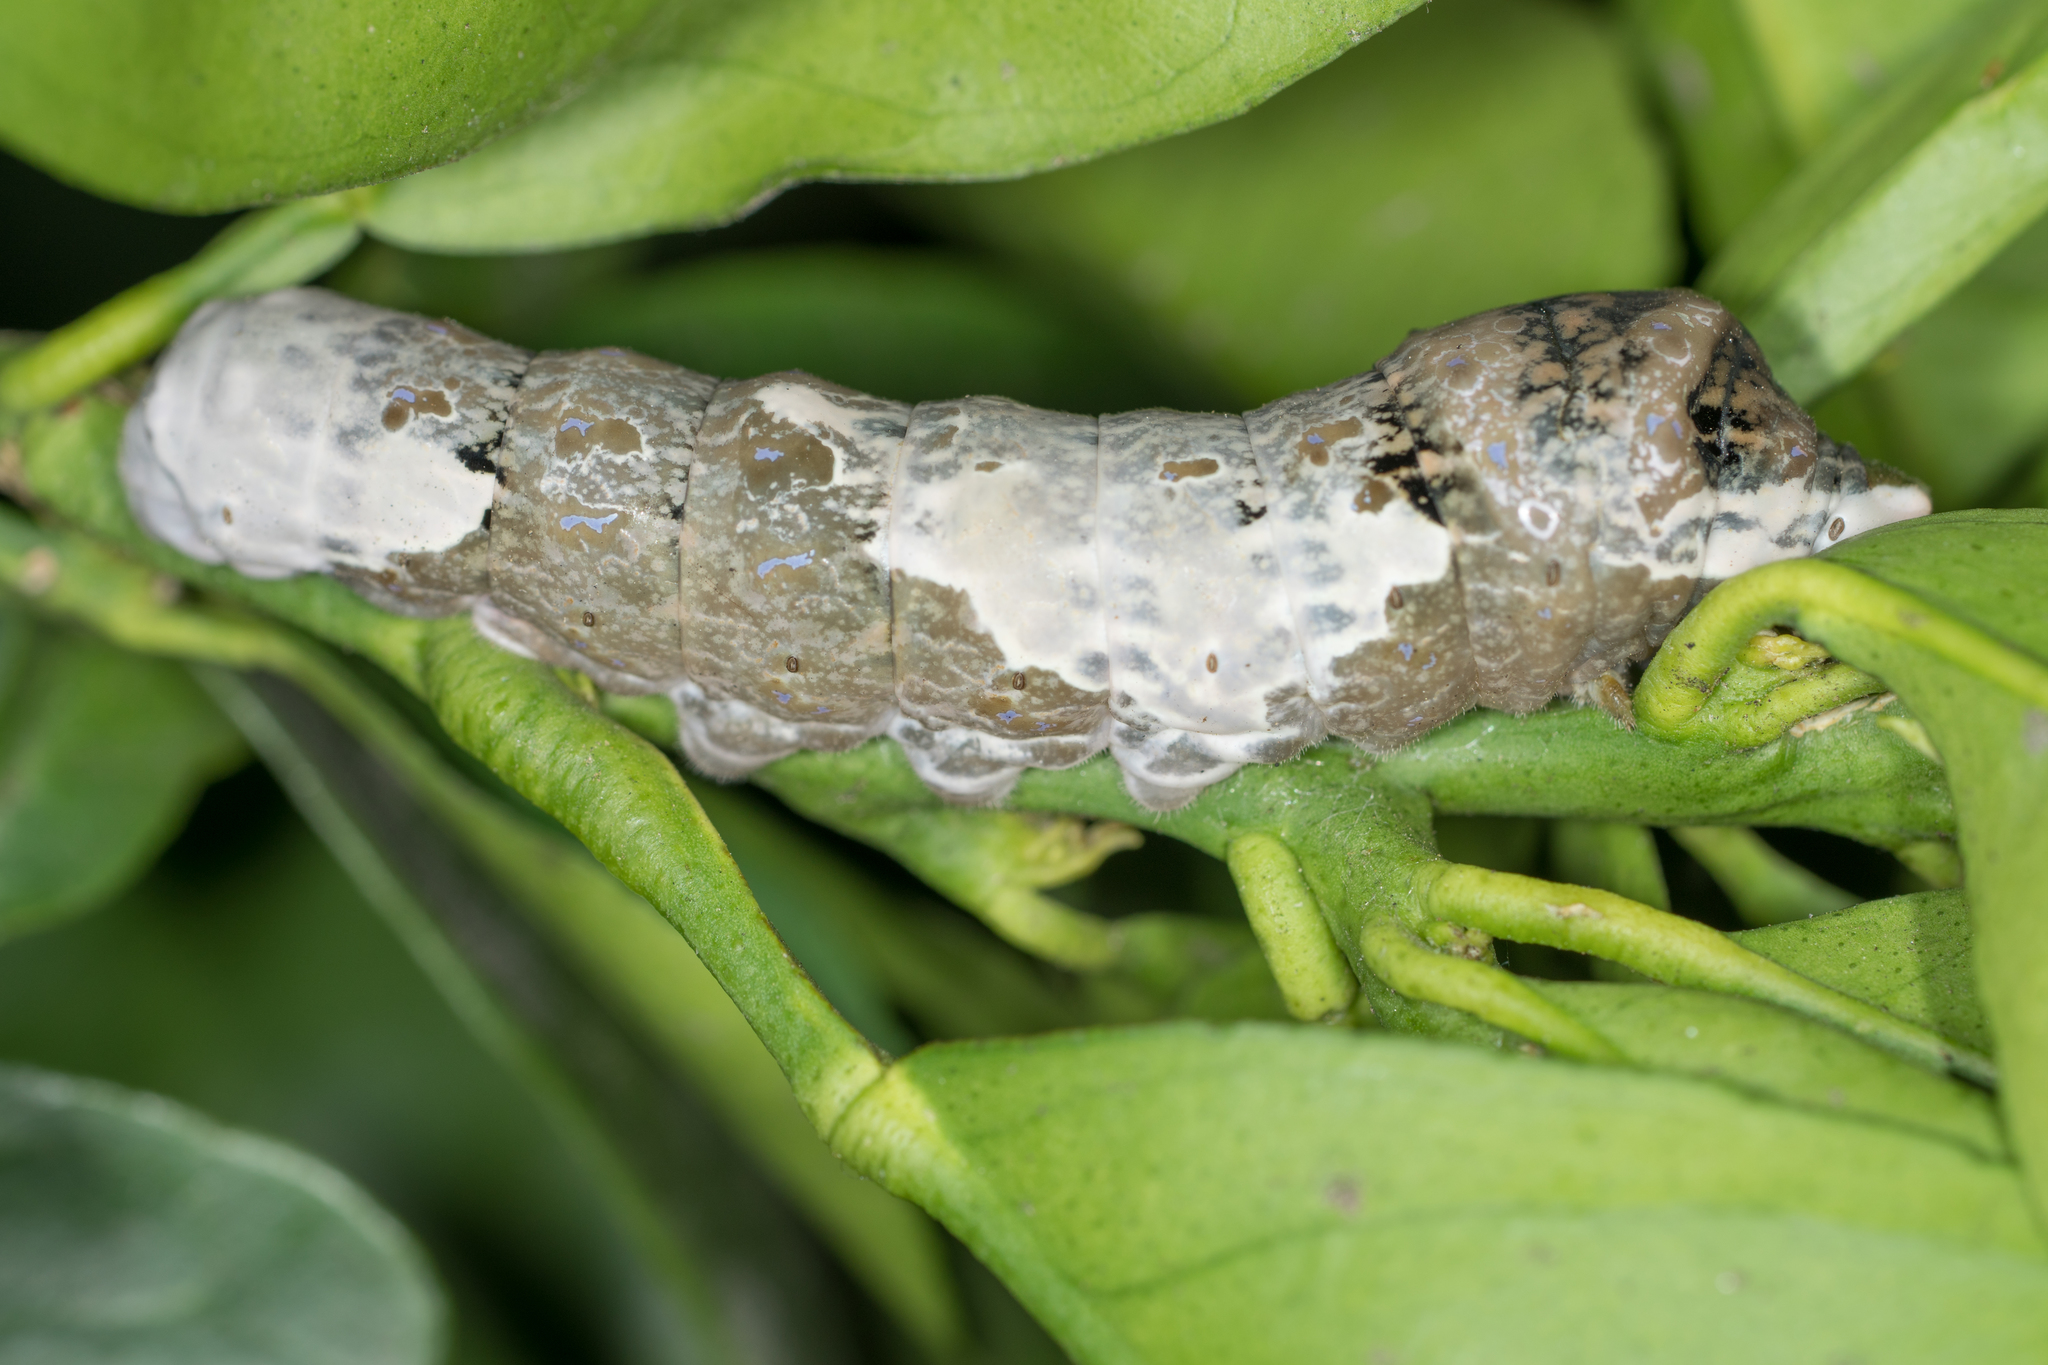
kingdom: Animalia
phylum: Arthropoda
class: Insecta
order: Lepidoptera
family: Papilionidae
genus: Papilio
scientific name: Papilio rumiko
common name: Western giant swallowtail
